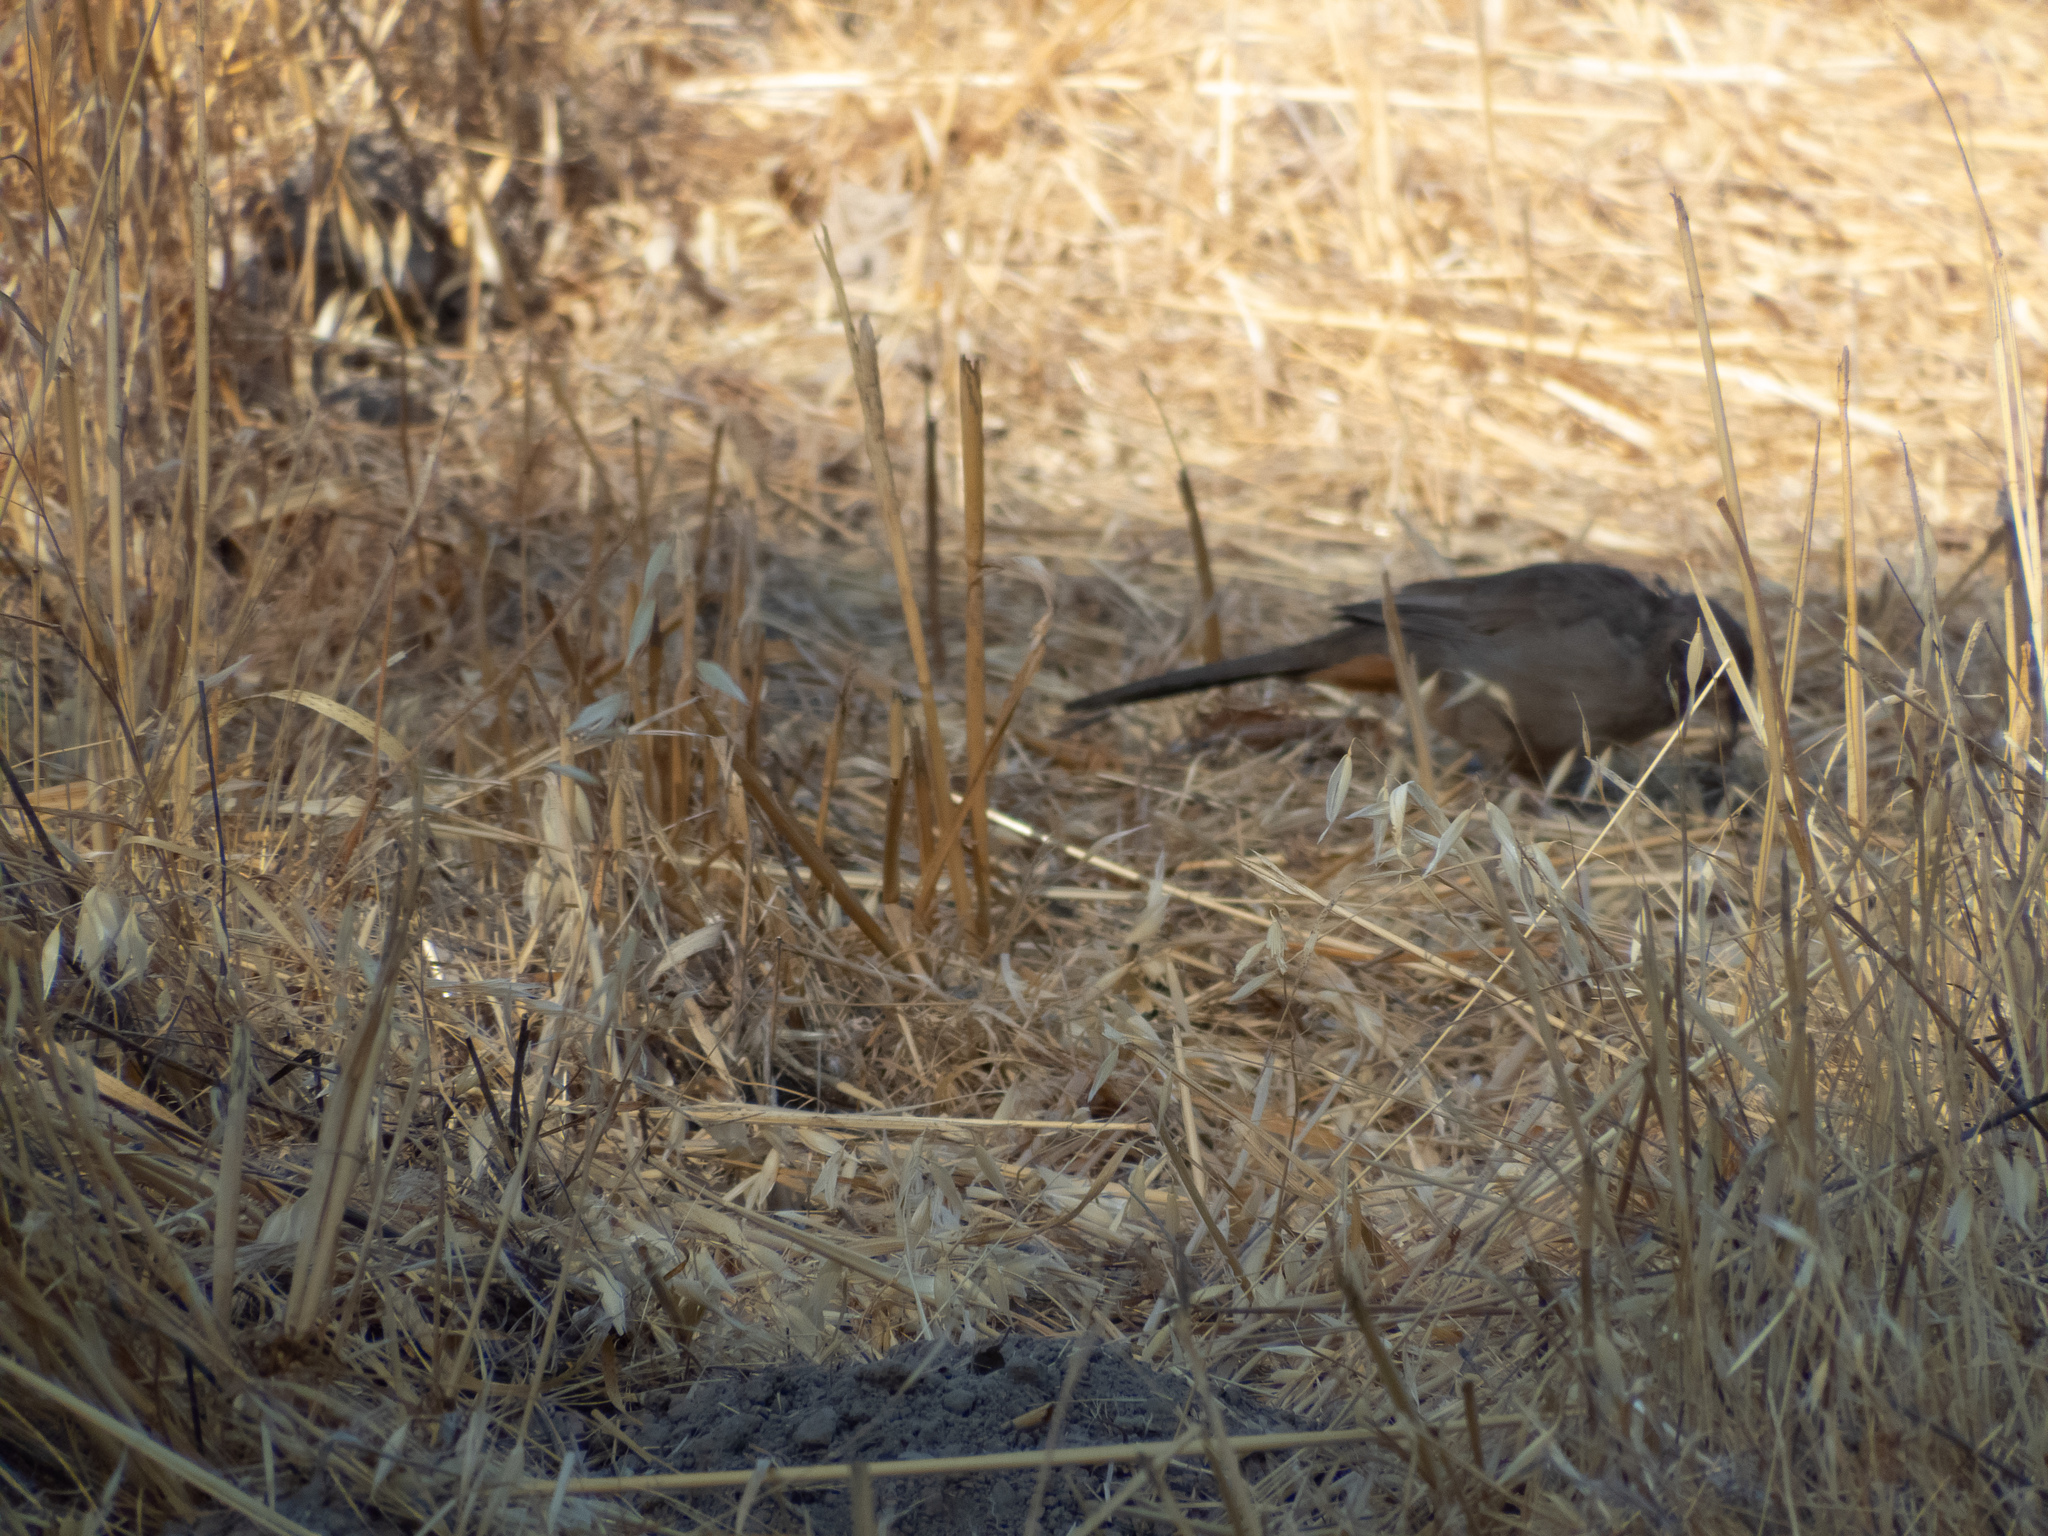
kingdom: Animalia
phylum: Chordata
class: Aves
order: Passeriformes
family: Passerellidae
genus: Melozone
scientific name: Melozone crissalis
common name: California towhee
